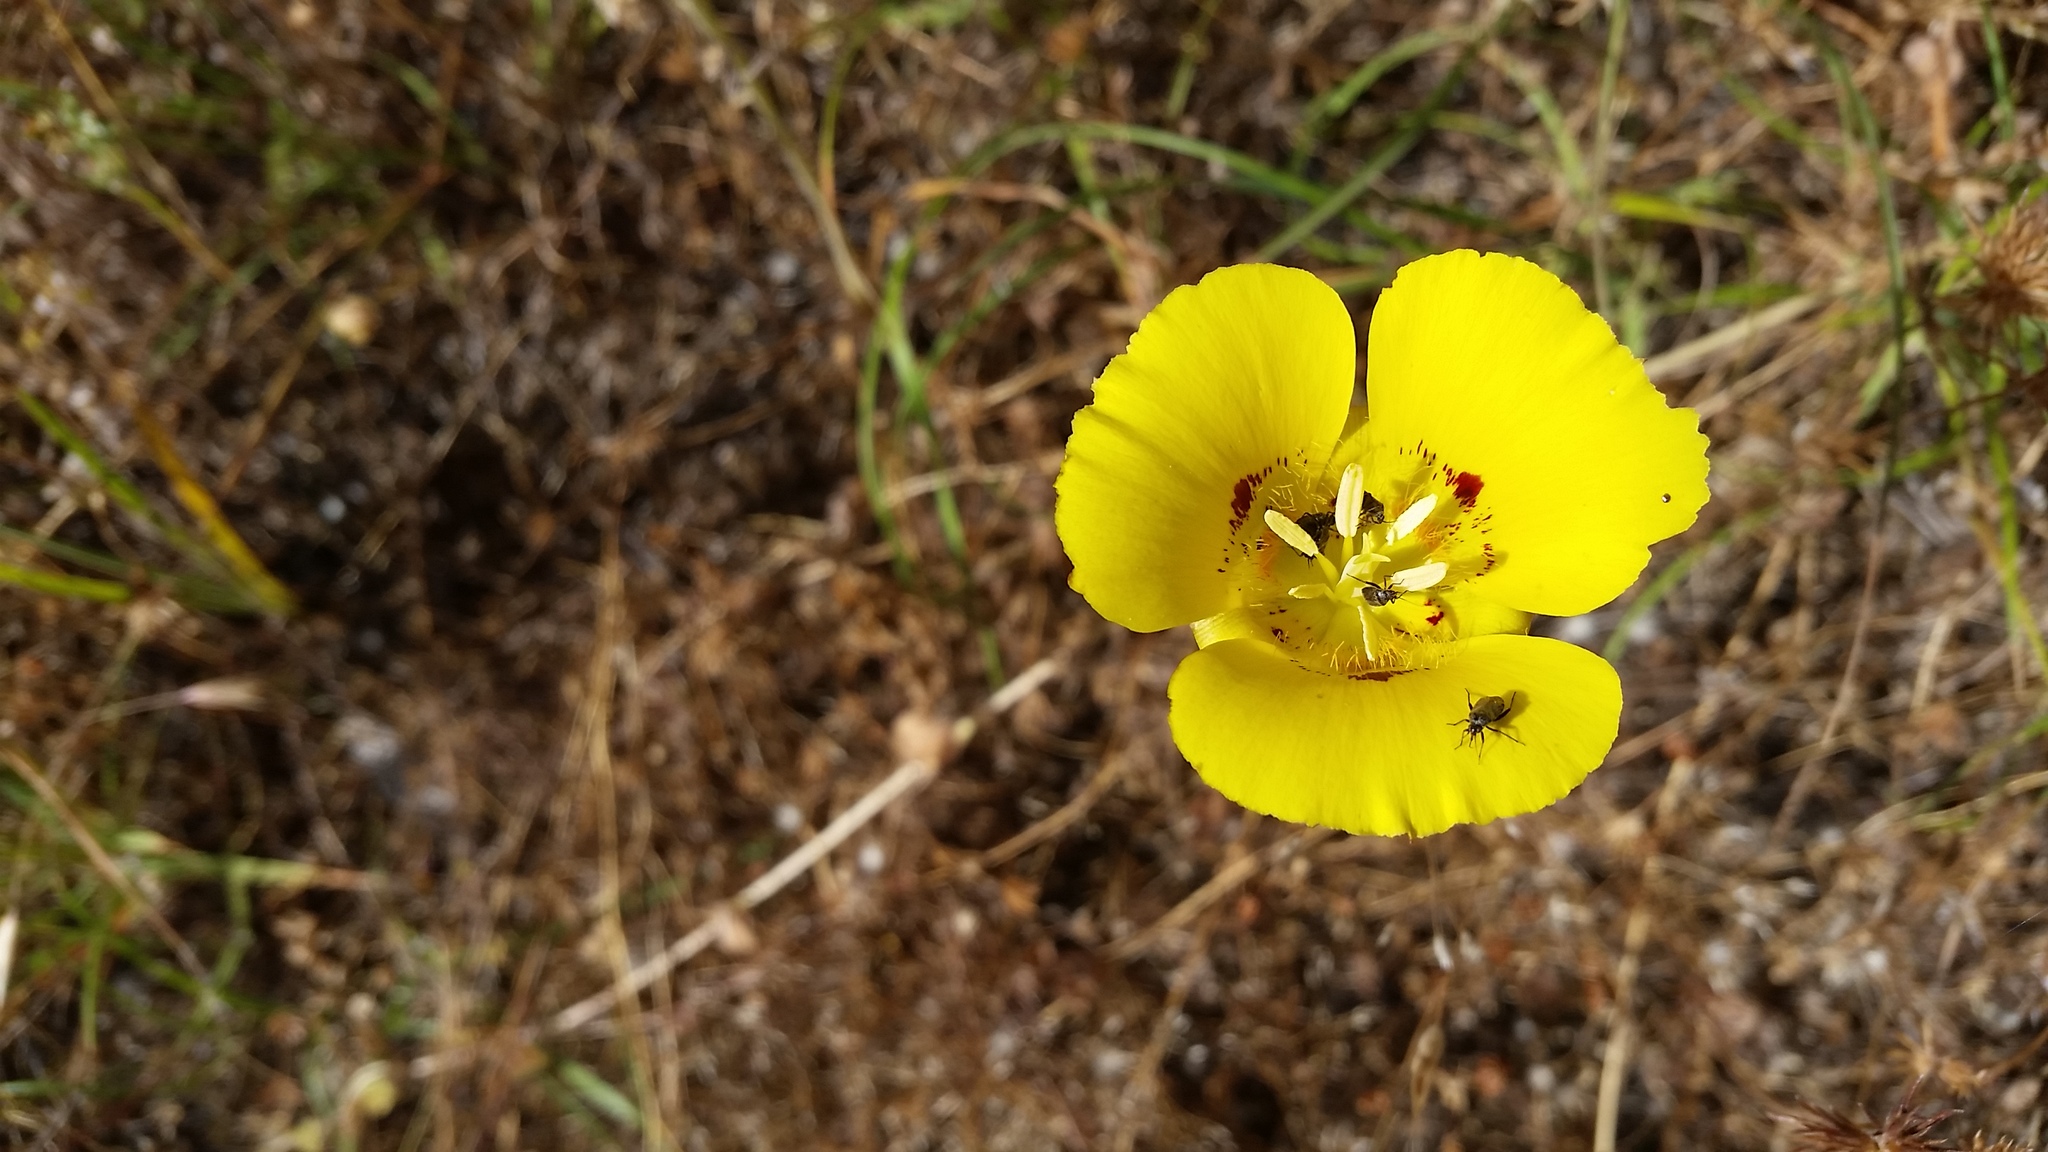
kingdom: Plantae
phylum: Tracheophyta
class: Liliopsida
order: Liliales
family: Liliaceae
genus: Calochortus
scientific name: Calochortus luteus
